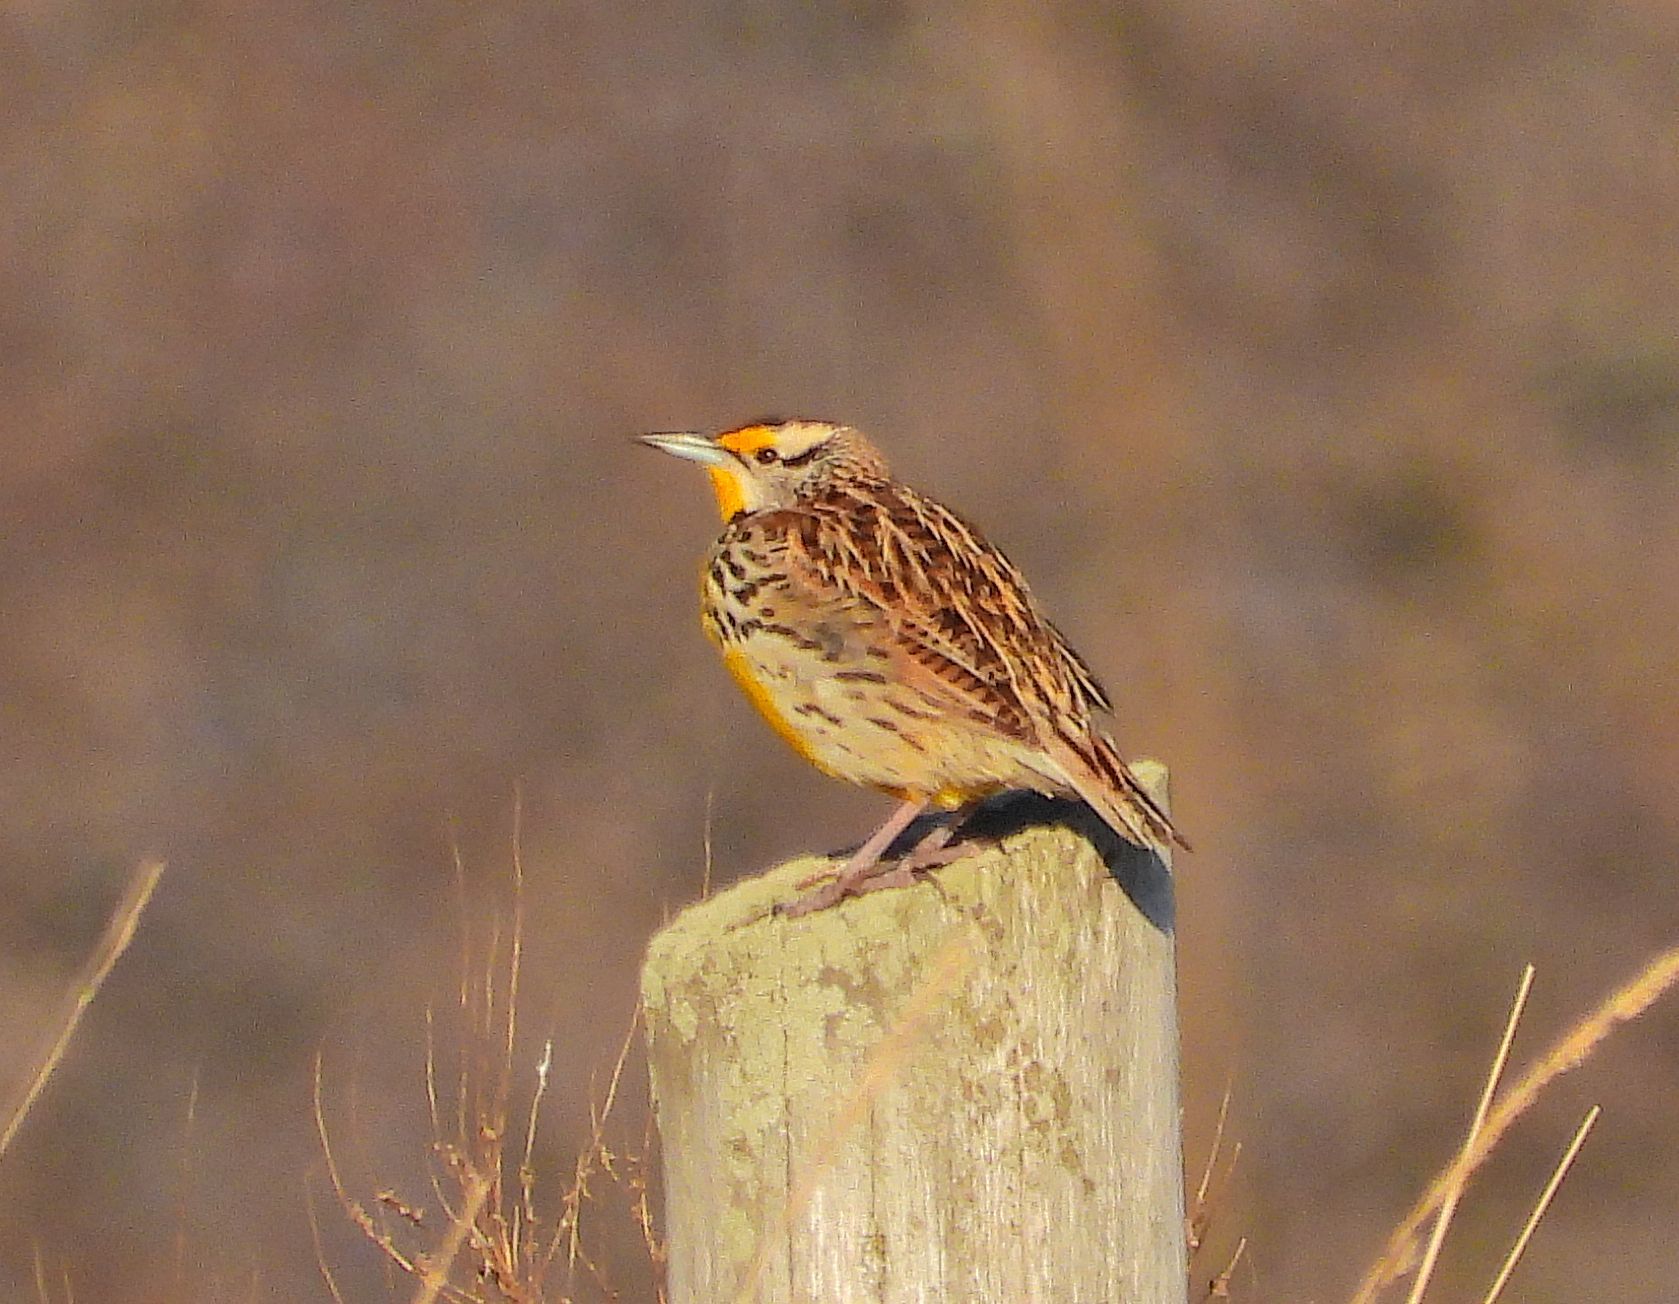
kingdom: Animalia
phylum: Chordata
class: Aves
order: Passeriformes
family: Icteridae
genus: Sturnella
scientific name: Sturnella magna
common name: Eastern meadowlark
